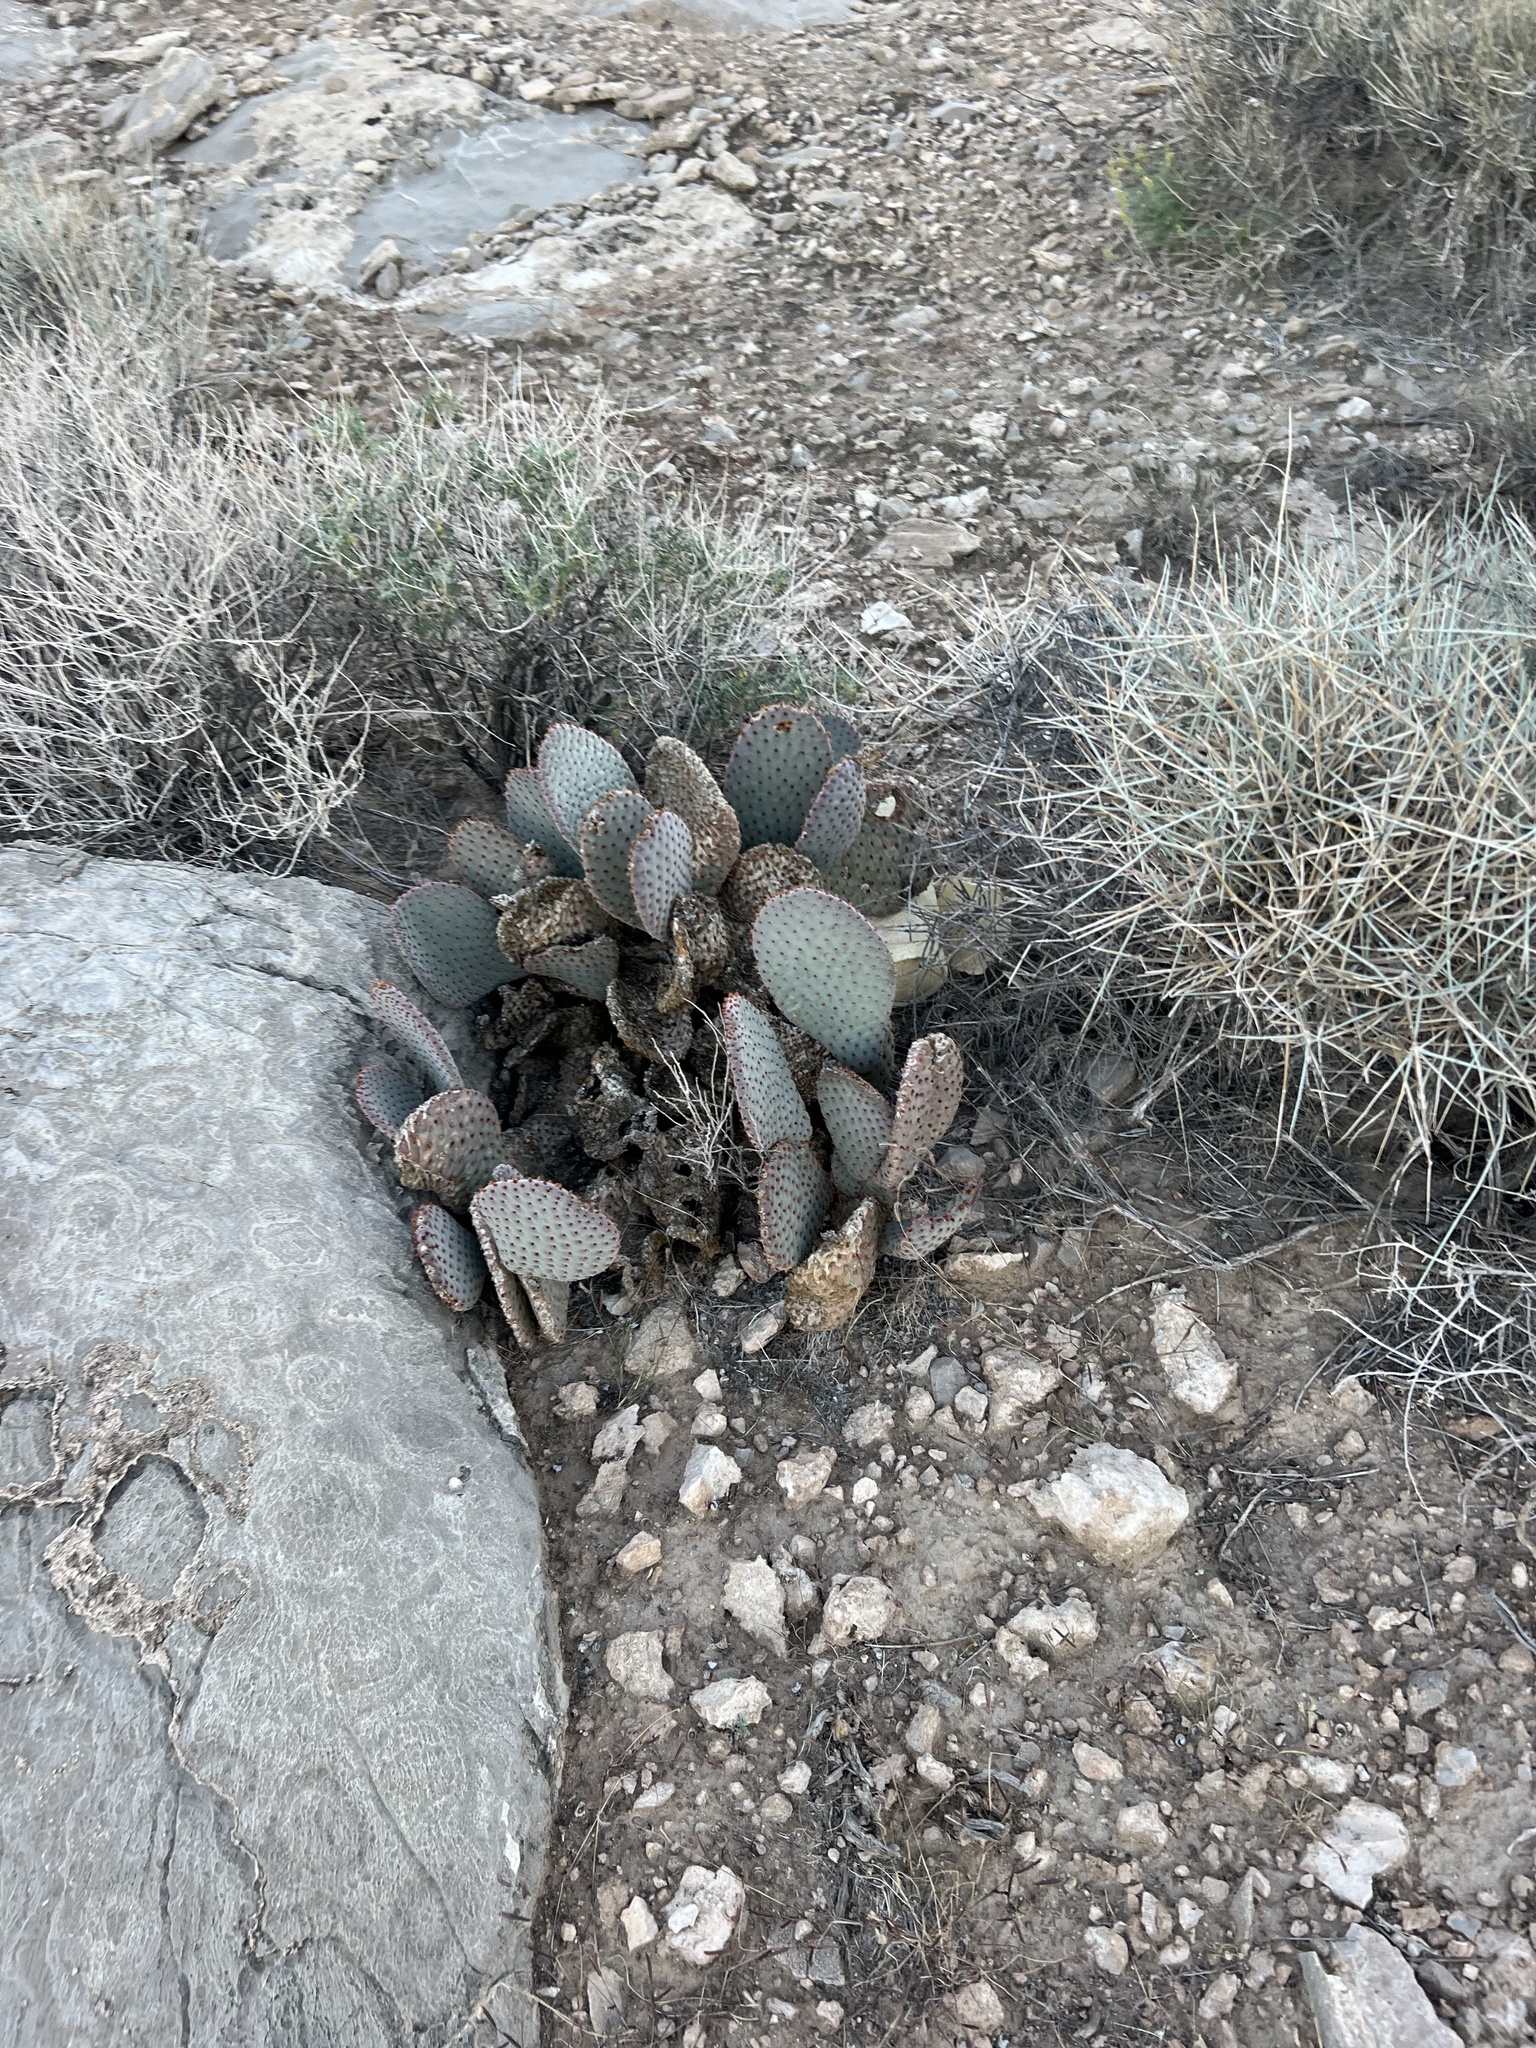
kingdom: Plantae
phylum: Tracheophyta
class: Magnoliopsida
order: Caryophyllales
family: Cactaceae
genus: Opuntia
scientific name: Opuntia basilaris
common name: Beavertail prickly-pear
